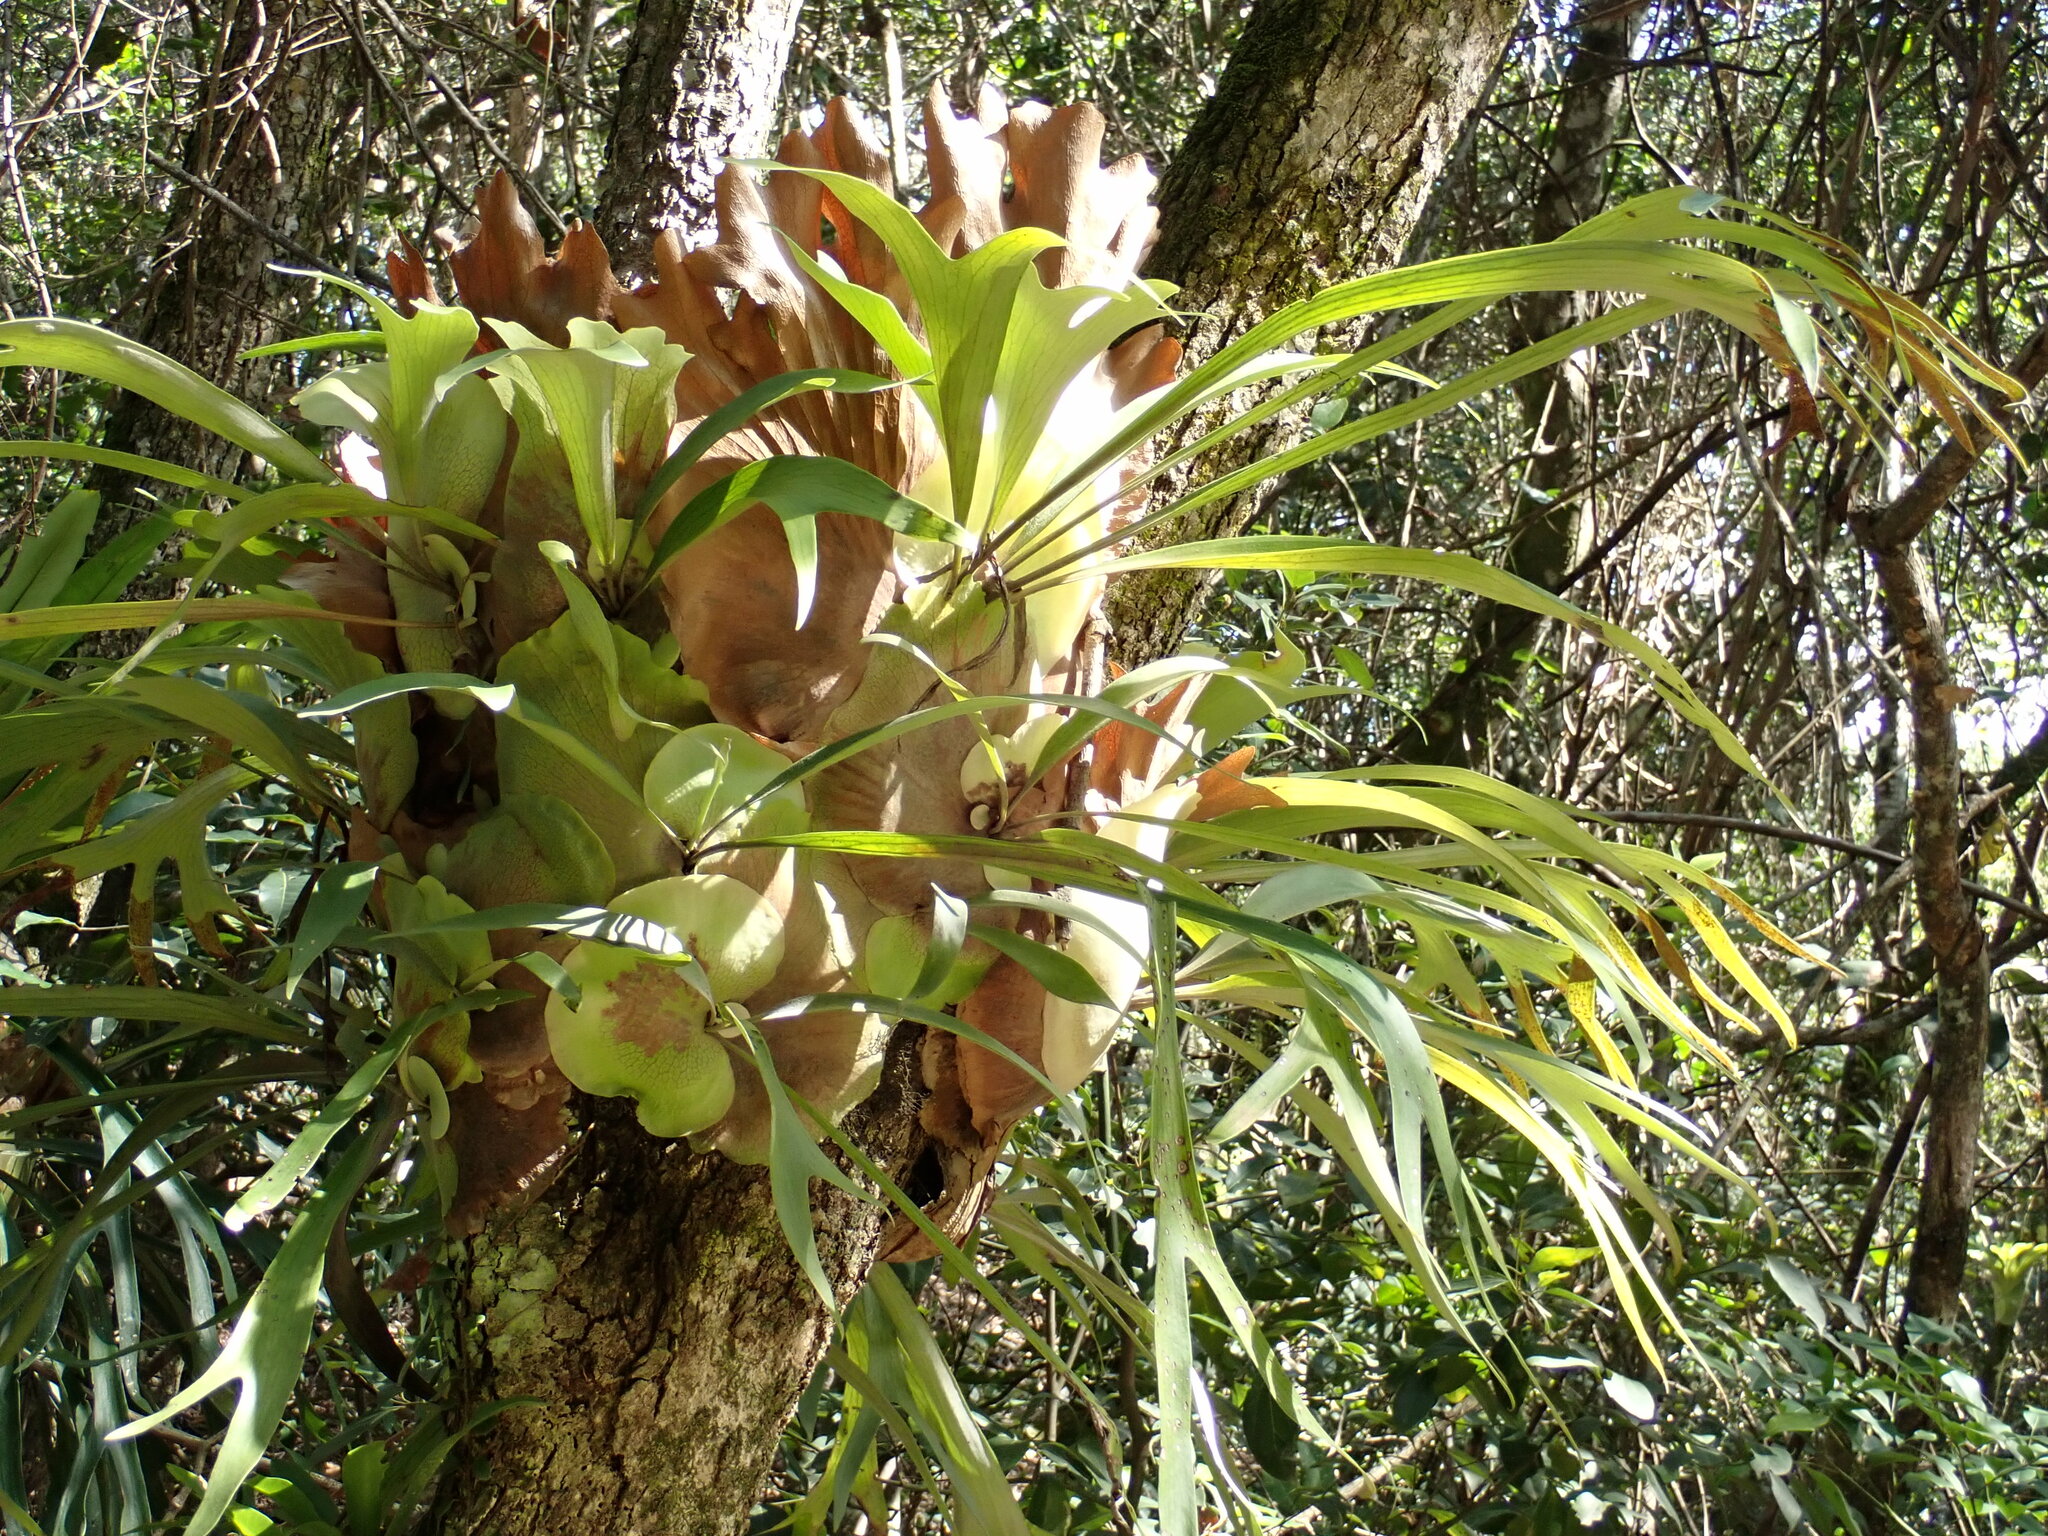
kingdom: Plantae
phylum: Tracheophyta
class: Polypodiopsida
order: Polypodiales
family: Polypodiaceae
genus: Platycerium
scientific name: Platycerium bifurcatum
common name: Elkhorn fern
